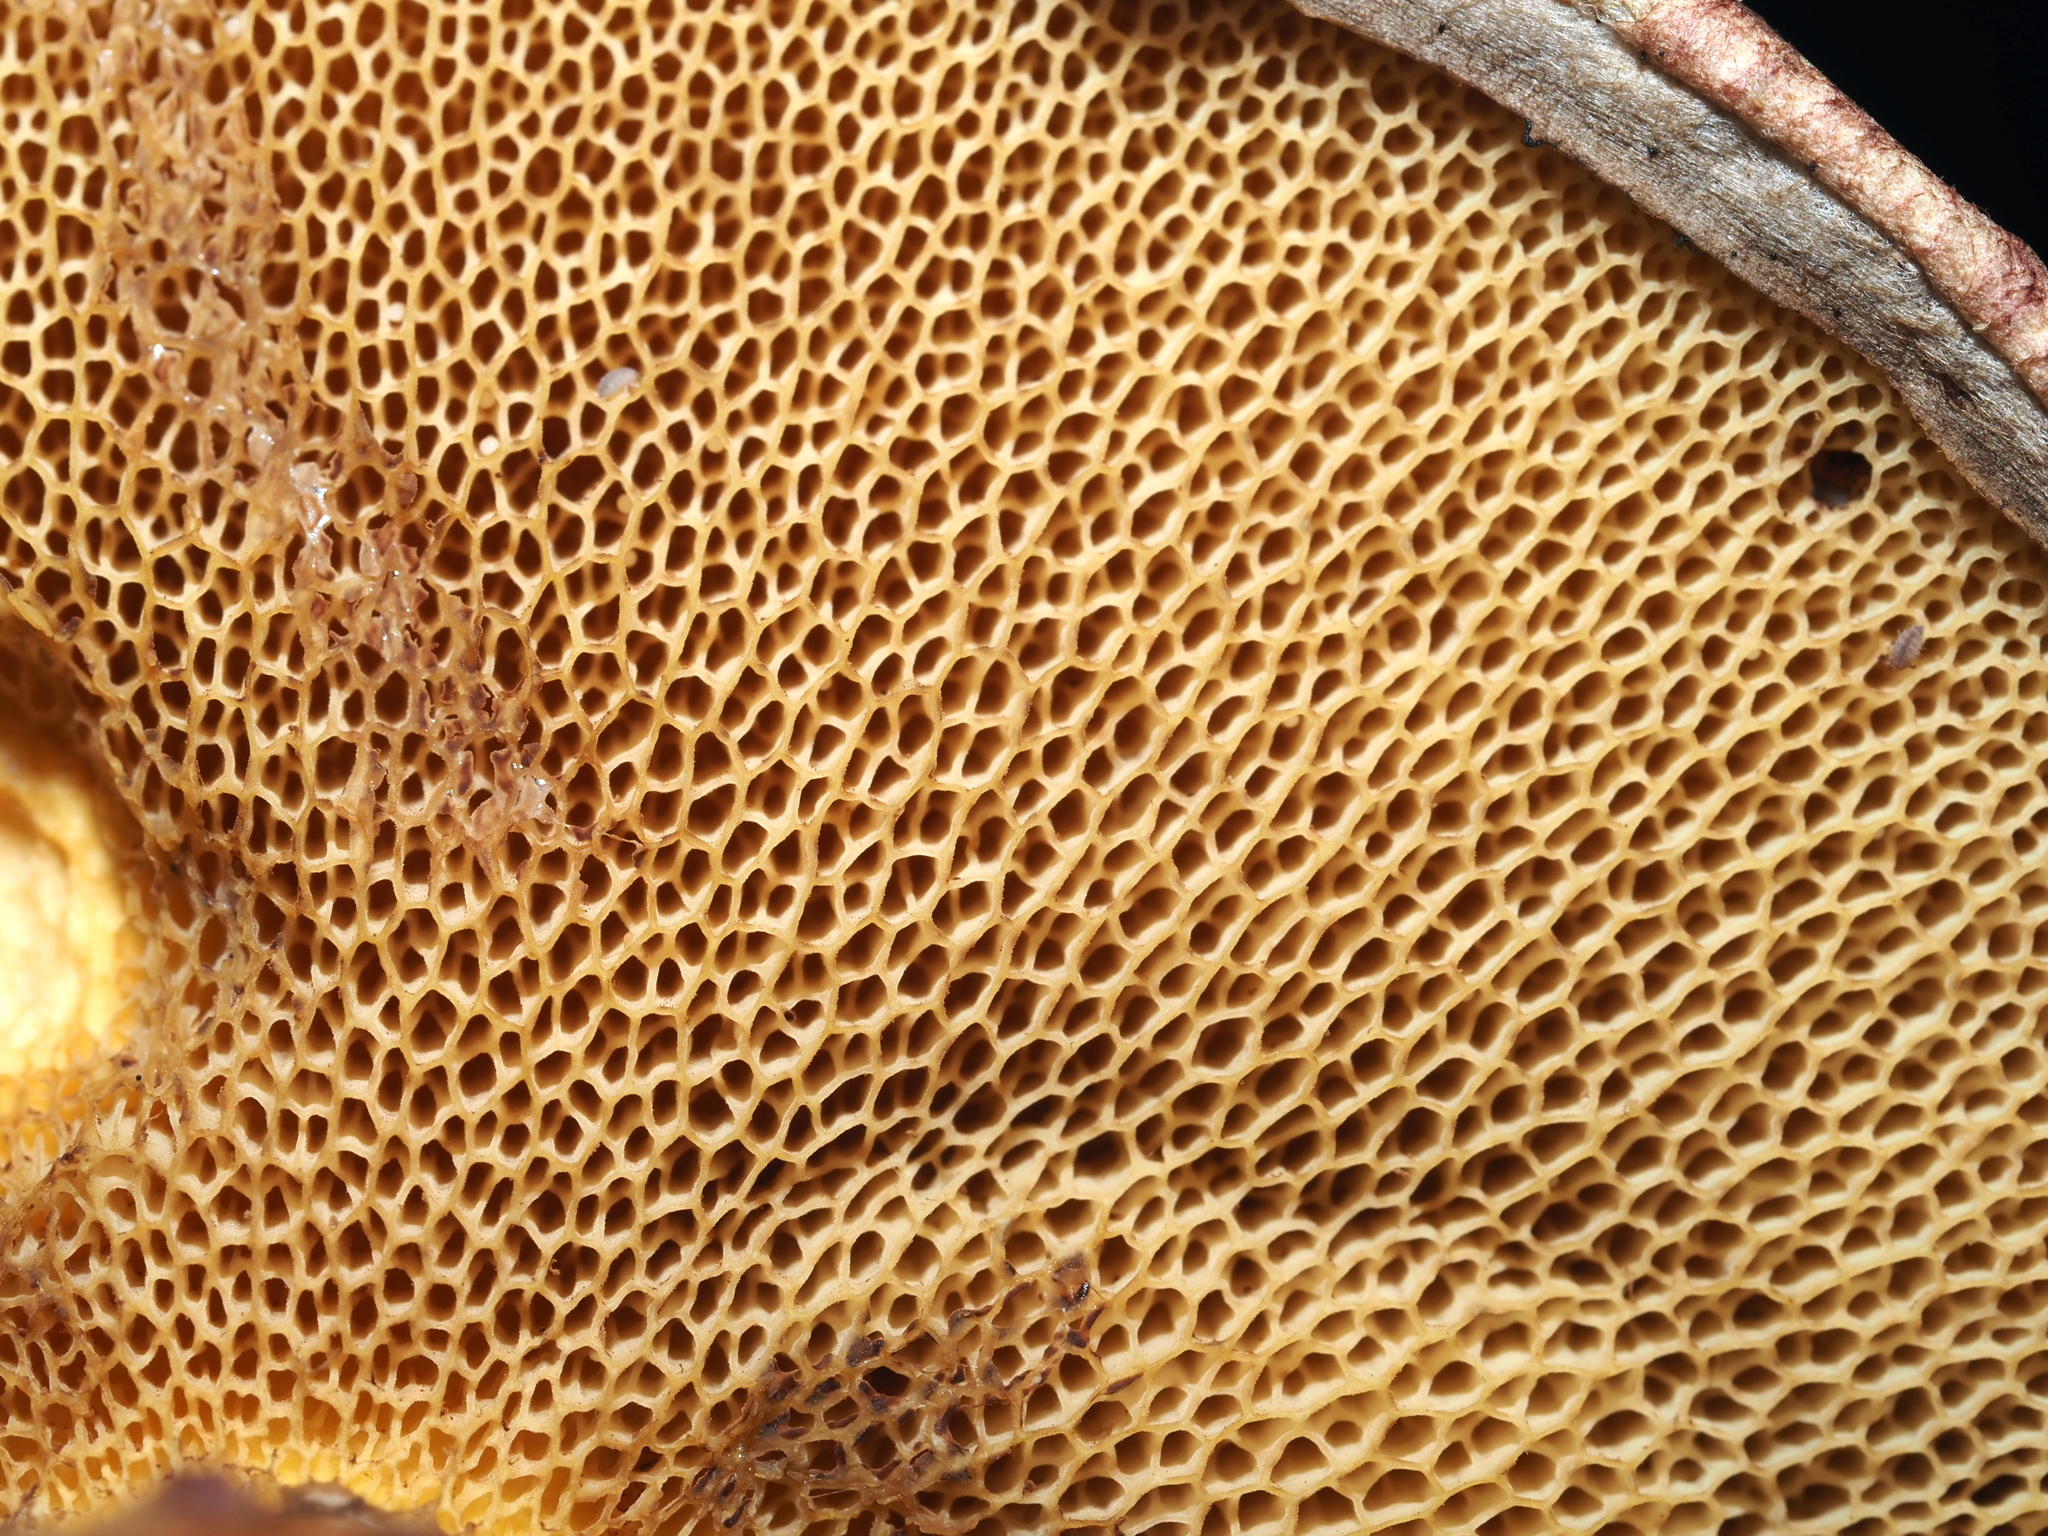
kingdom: Fungi
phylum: Basidiomycota
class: Agaricomycetes
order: Boletales
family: Suillaceae
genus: Suillus
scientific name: Suillus spraguei
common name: Painted suillus
